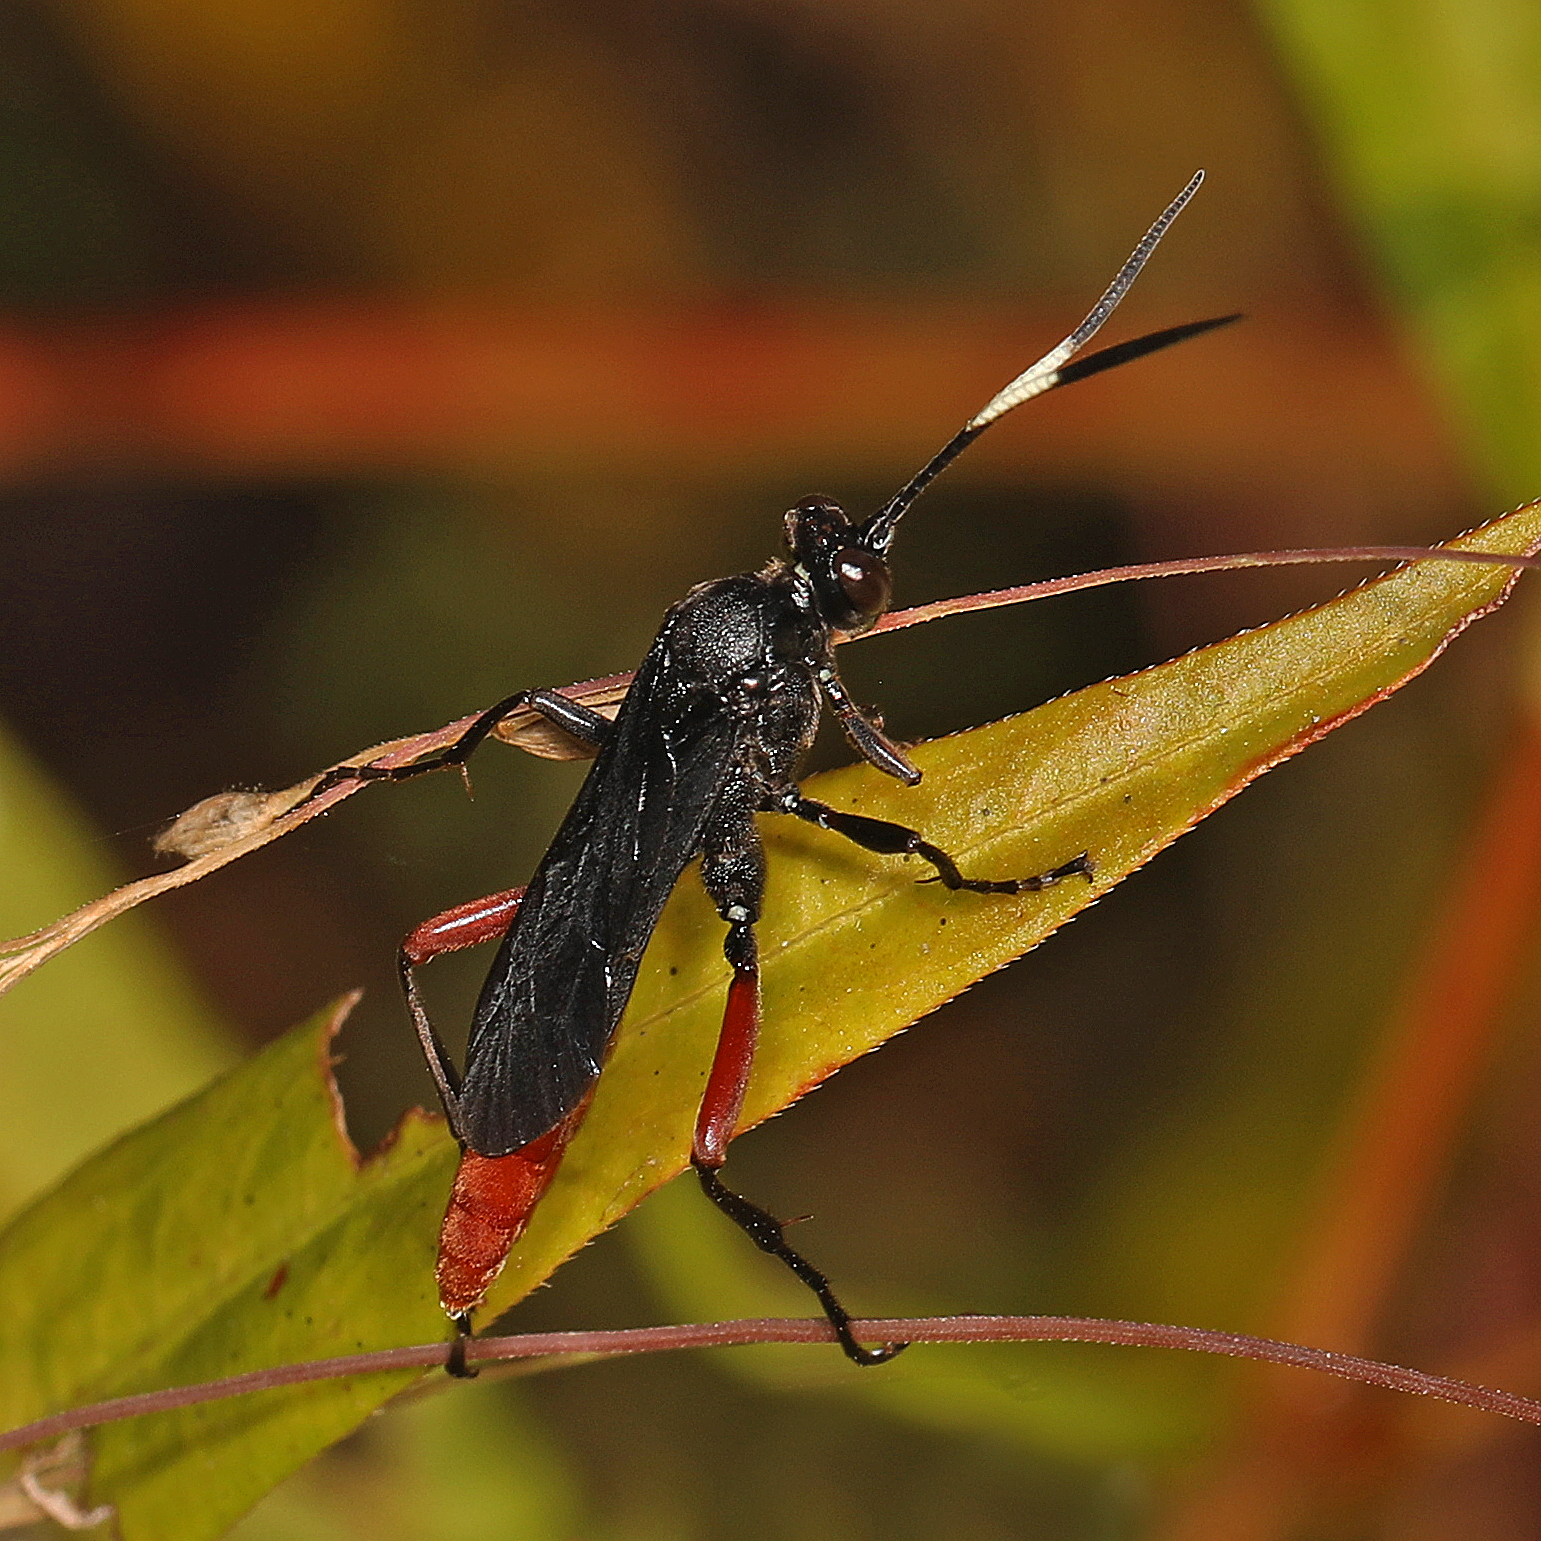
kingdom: Animalia
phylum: Arthropoda
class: Insecta
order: Hymenoptera
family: Ichneumonidae
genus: Limonethe
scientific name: Limonethe maurator
